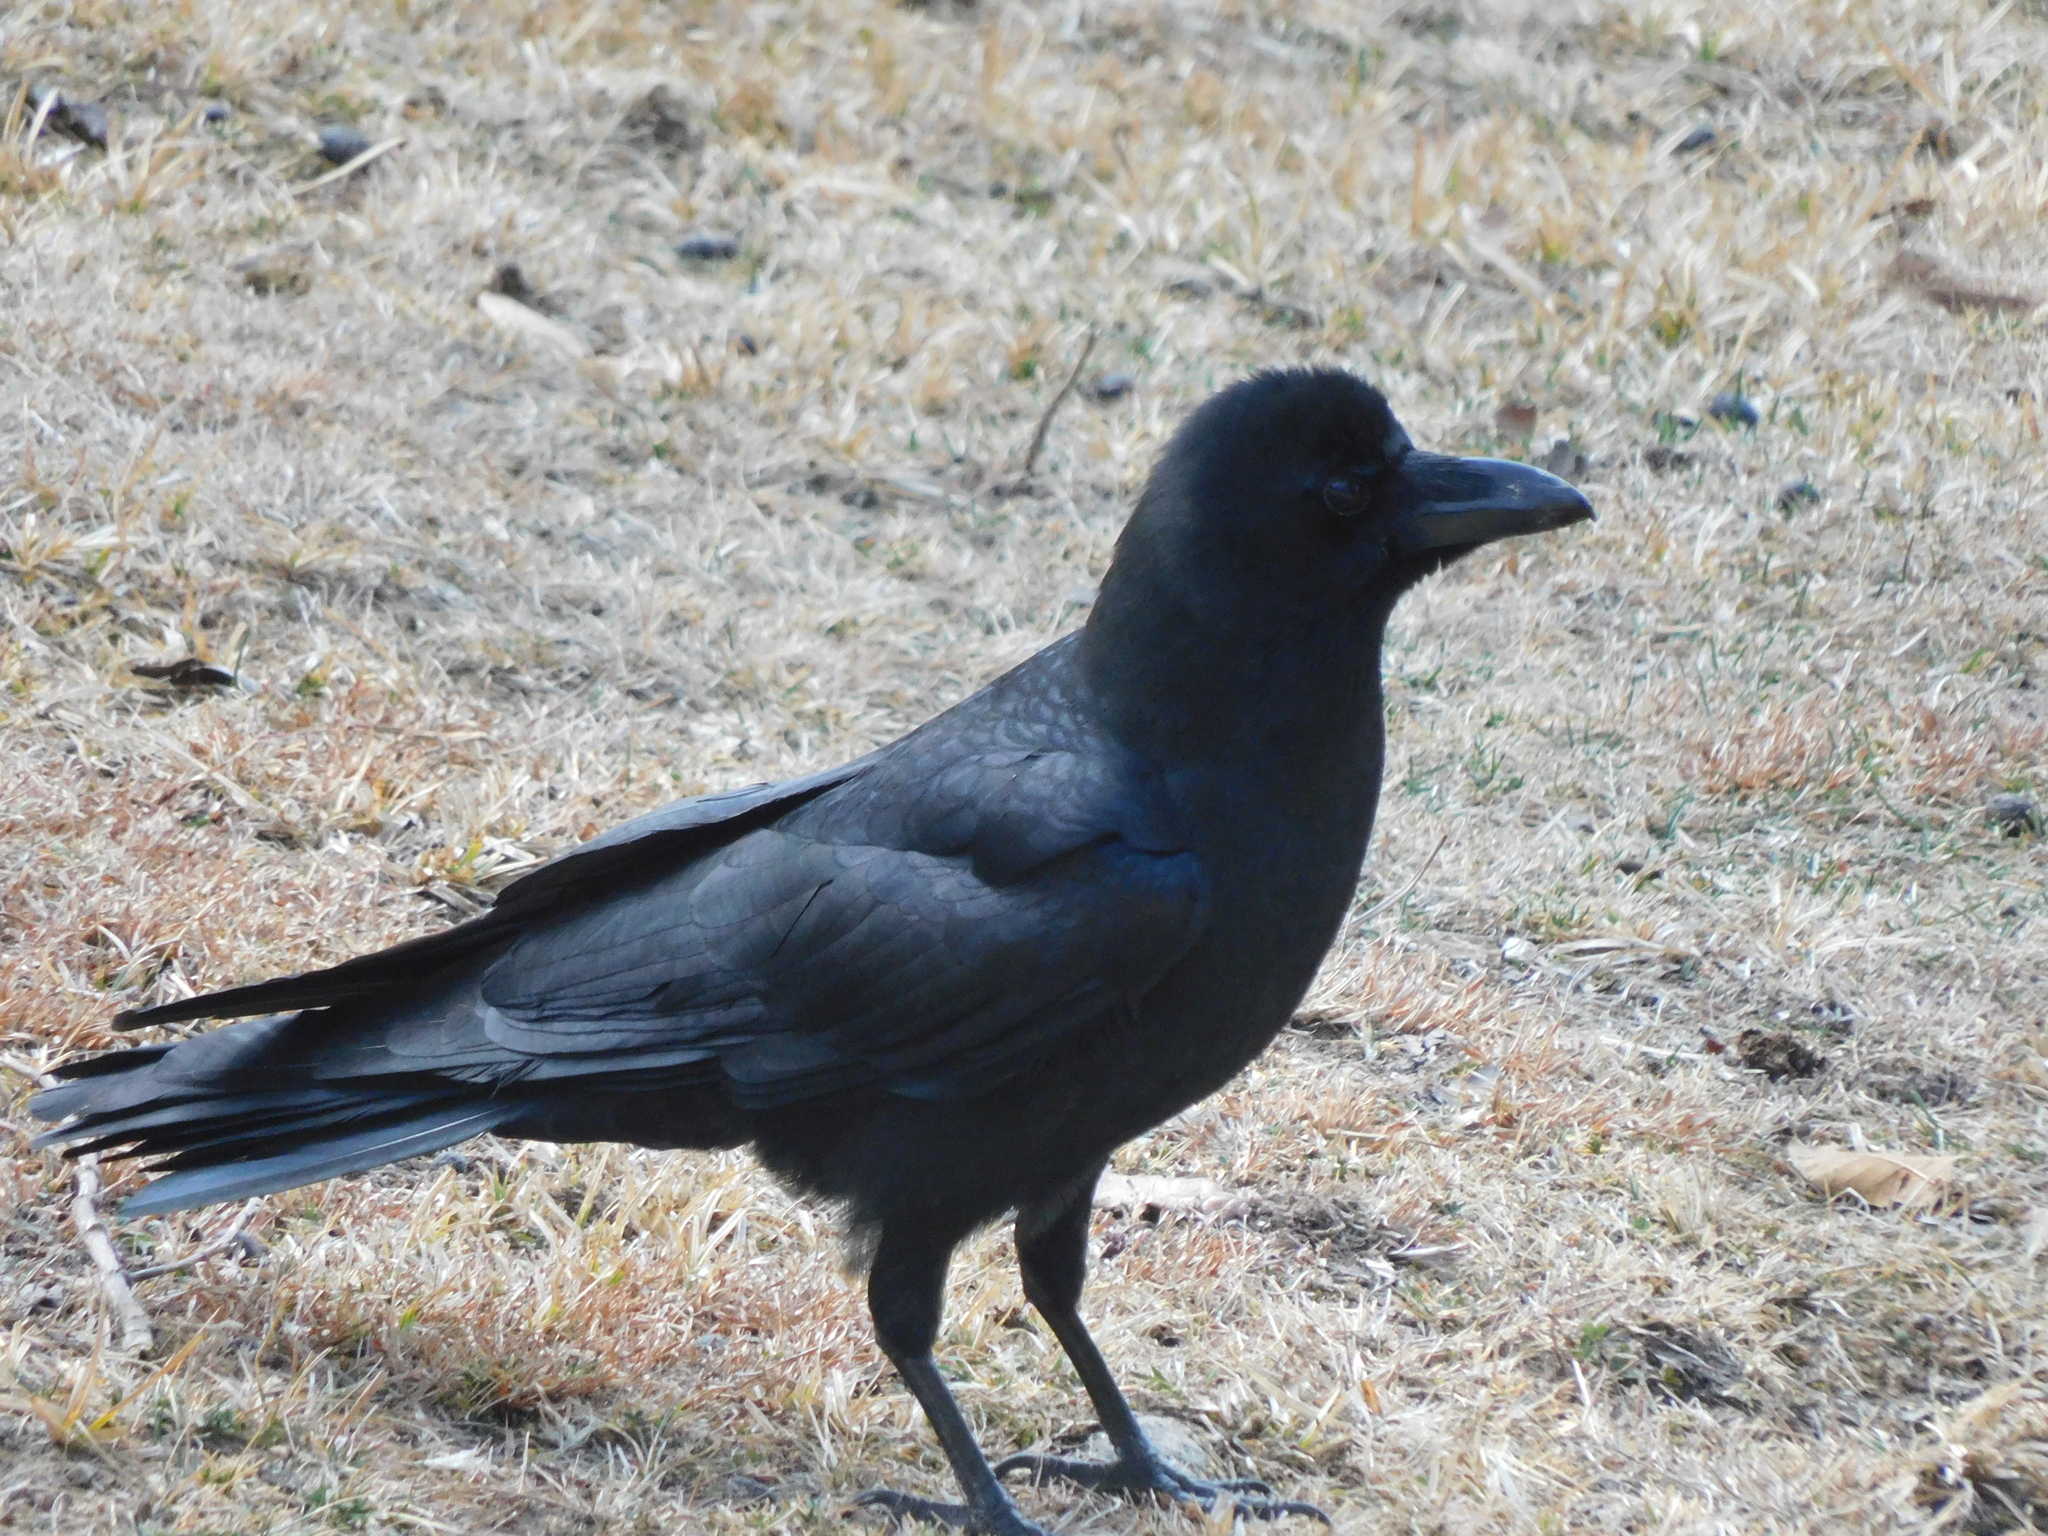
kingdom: Animalia
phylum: Chordata
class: Aves
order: Passeriformes
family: Corvidae
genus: Corvus
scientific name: Corvus macrorhynchos
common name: Large-billed crow
